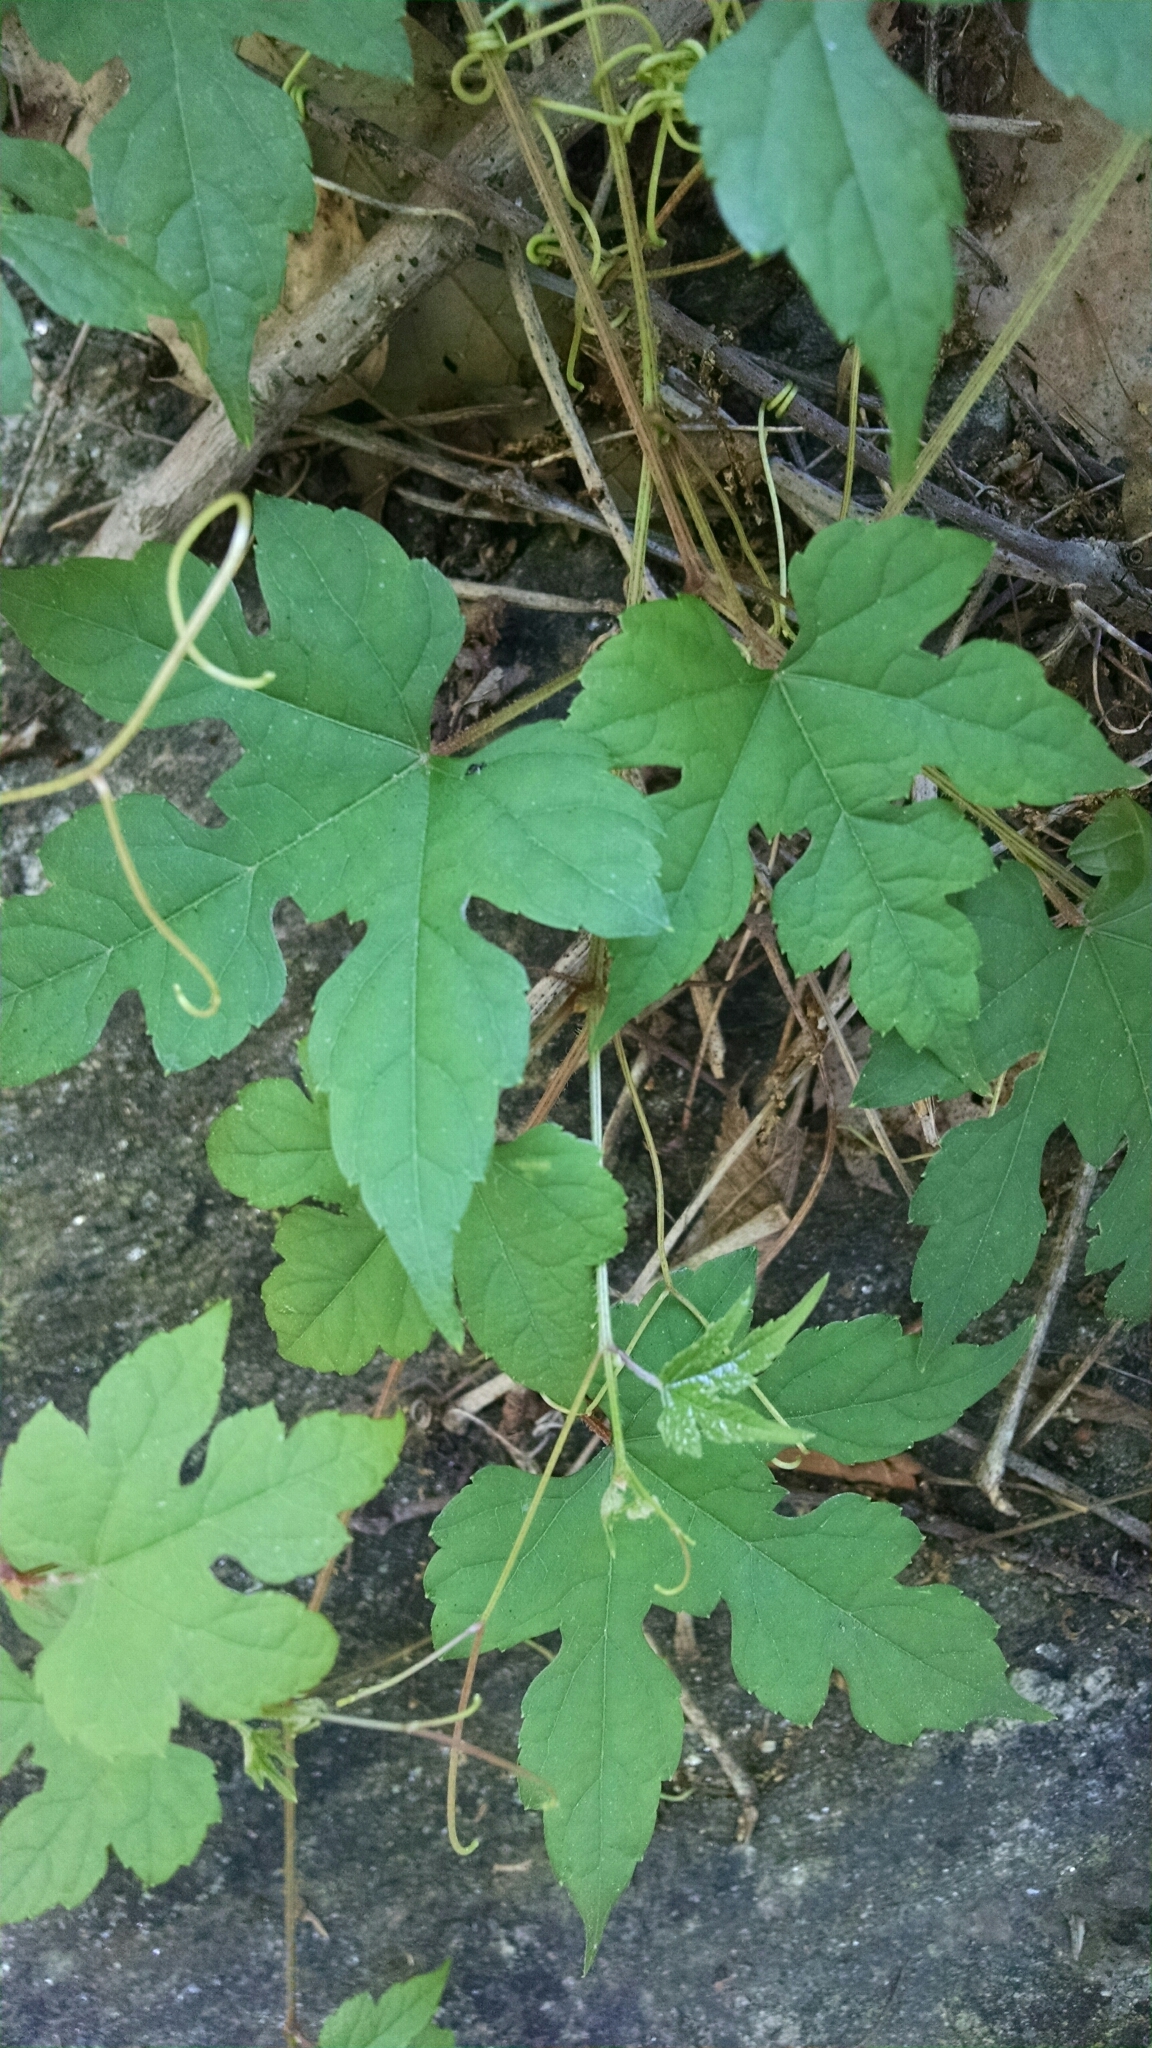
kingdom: Plantae
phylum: Tracheophyta
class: Magnoliopsida
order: Vitales
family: Vitaceae
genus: Ampelopsis
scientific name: Ampelopsis glandulosa
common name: Amur peppervine
